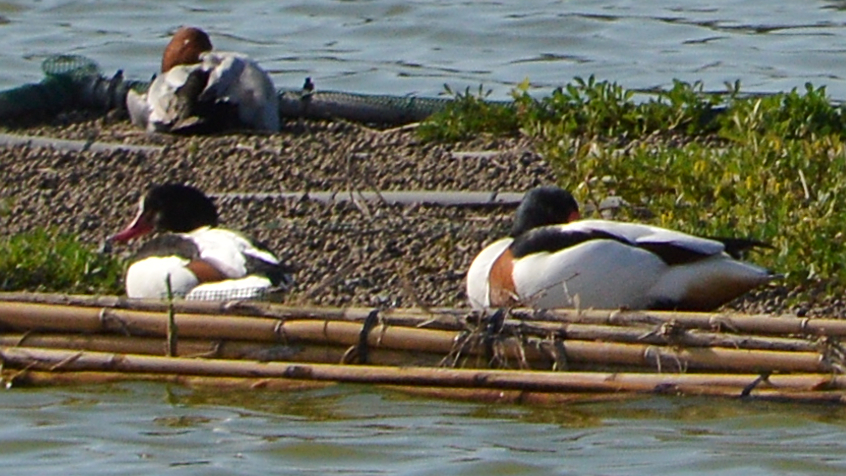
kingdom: Animalia
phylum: Chordata
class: Aves
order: Anseriformes
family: Anatidae
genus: Tadorna
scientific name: Tadorna tadorna
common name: Common shelduck
